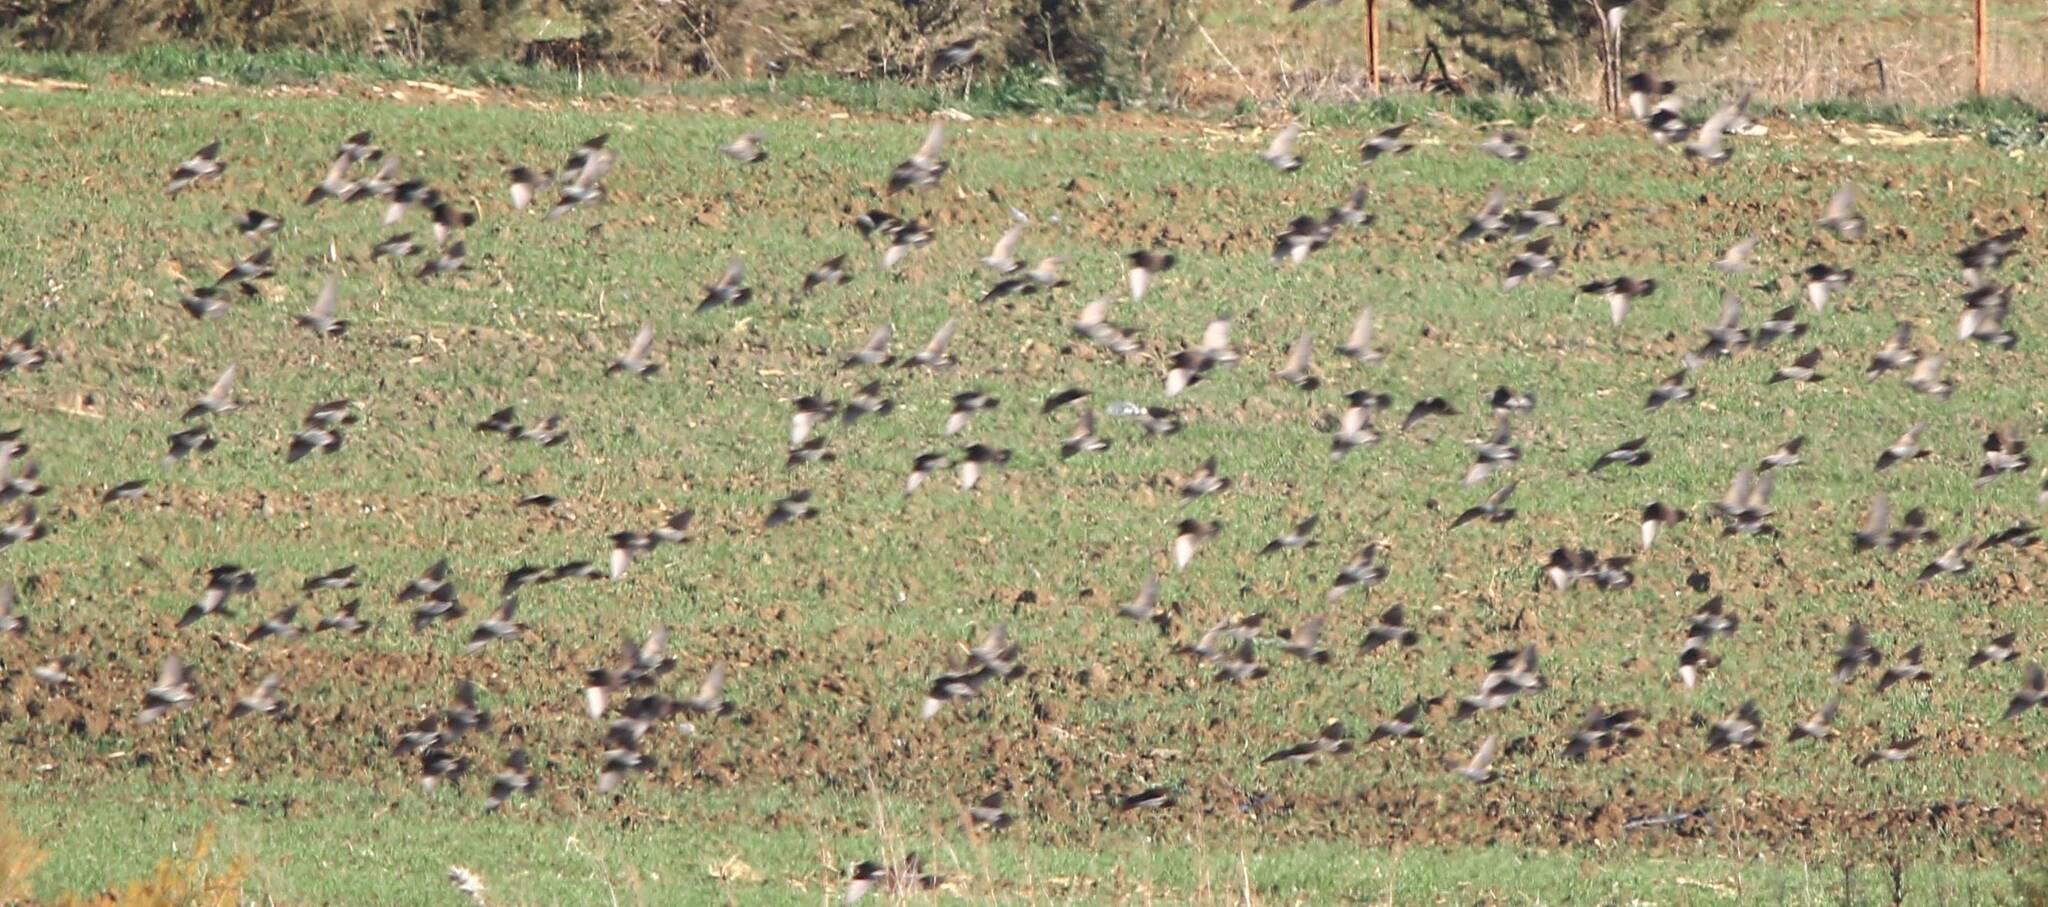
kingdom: Animalia
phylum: Chordata
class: Aves
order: Passeriformes
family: Sturnidae
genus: Sturnus
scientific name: Sturnus vulgaris
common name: Common starling
